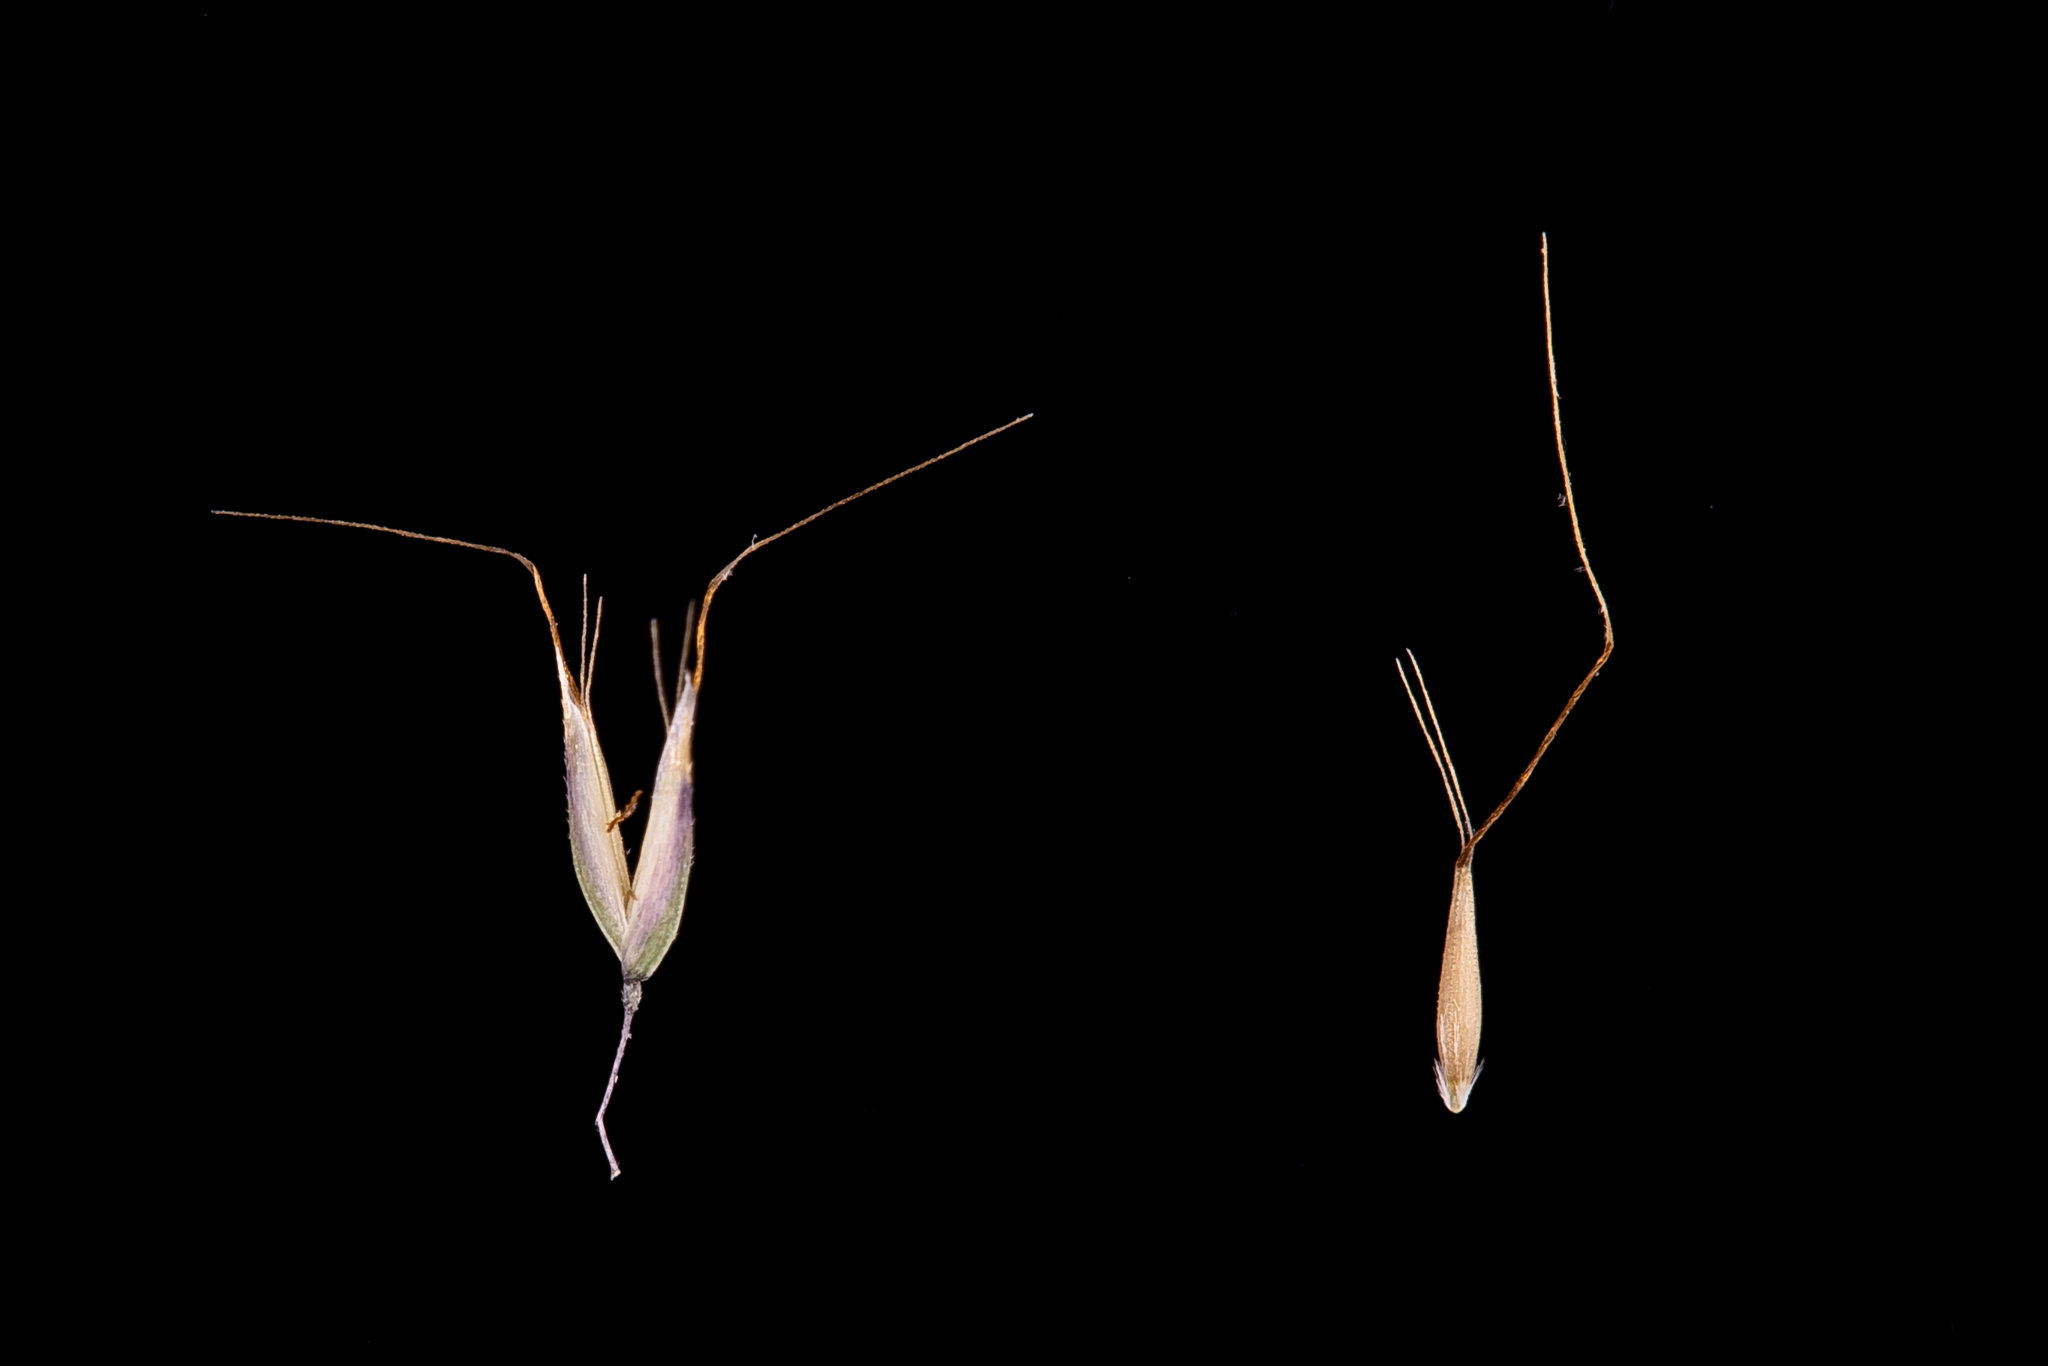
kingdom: Plantae
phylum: Tracheophyta
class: Liliopsida
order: Poales
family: Poaceae
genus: Pentameris
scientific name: Pentameris airoides
